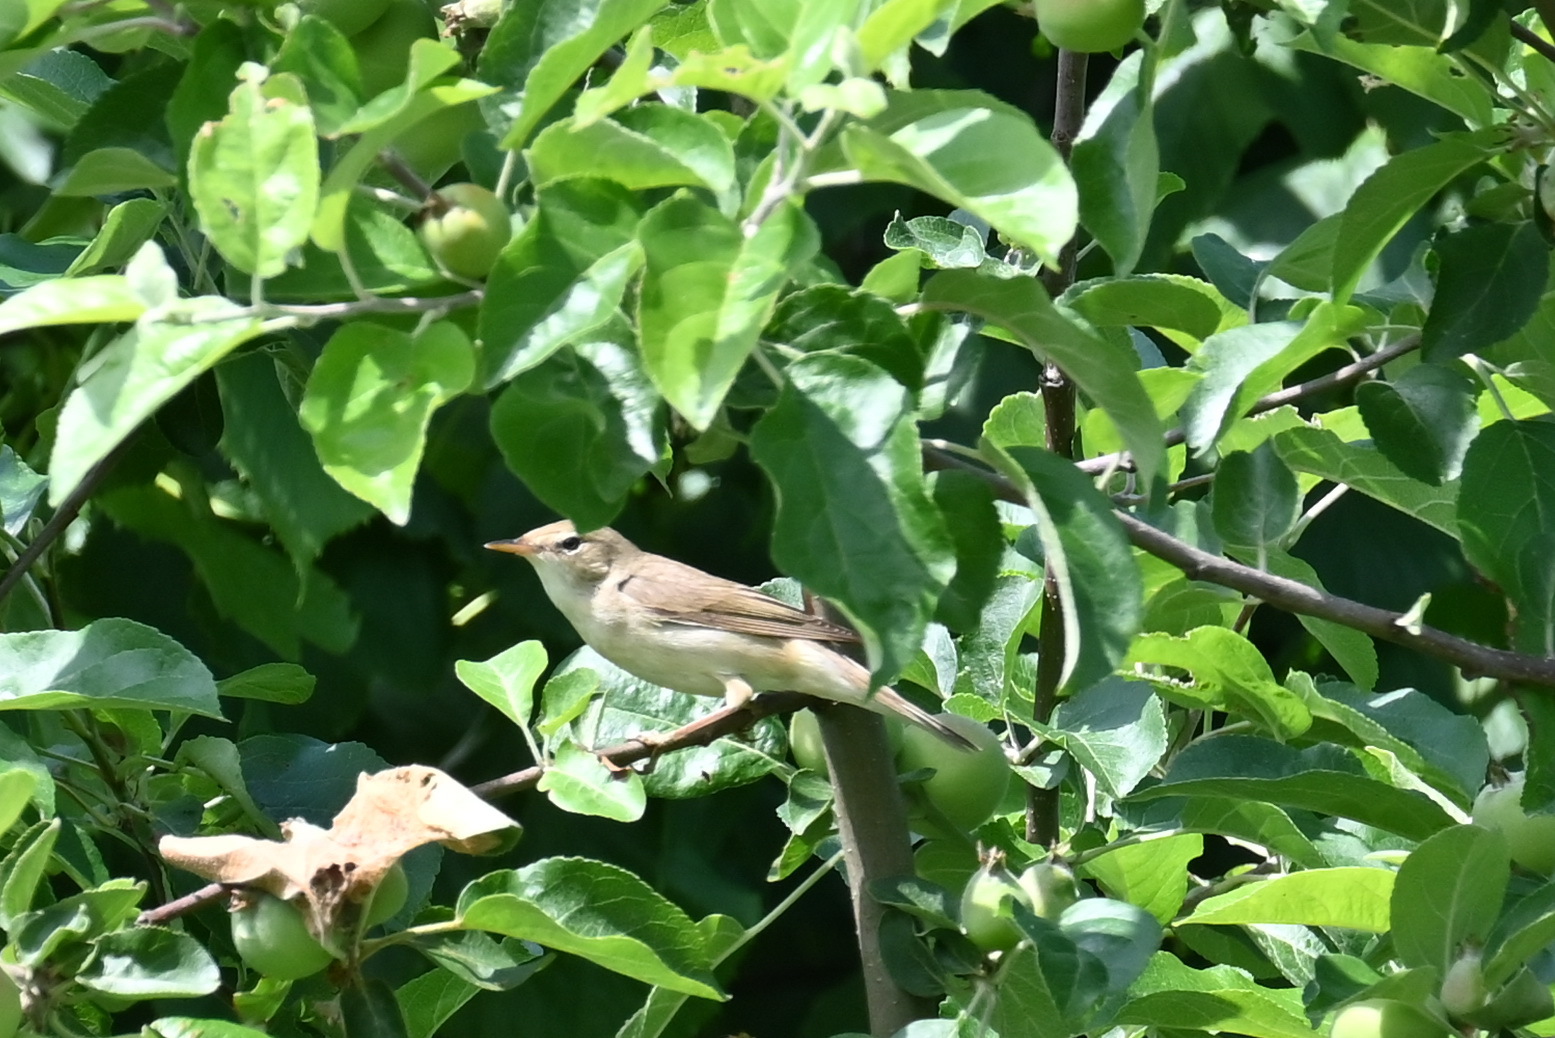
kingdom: Animalia
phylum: Chordata
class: Aves
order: Passeriformes
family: Acrocephalidae
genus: Acrocephalus
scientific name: Acrocephalus palustris
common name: Marsh warbler
